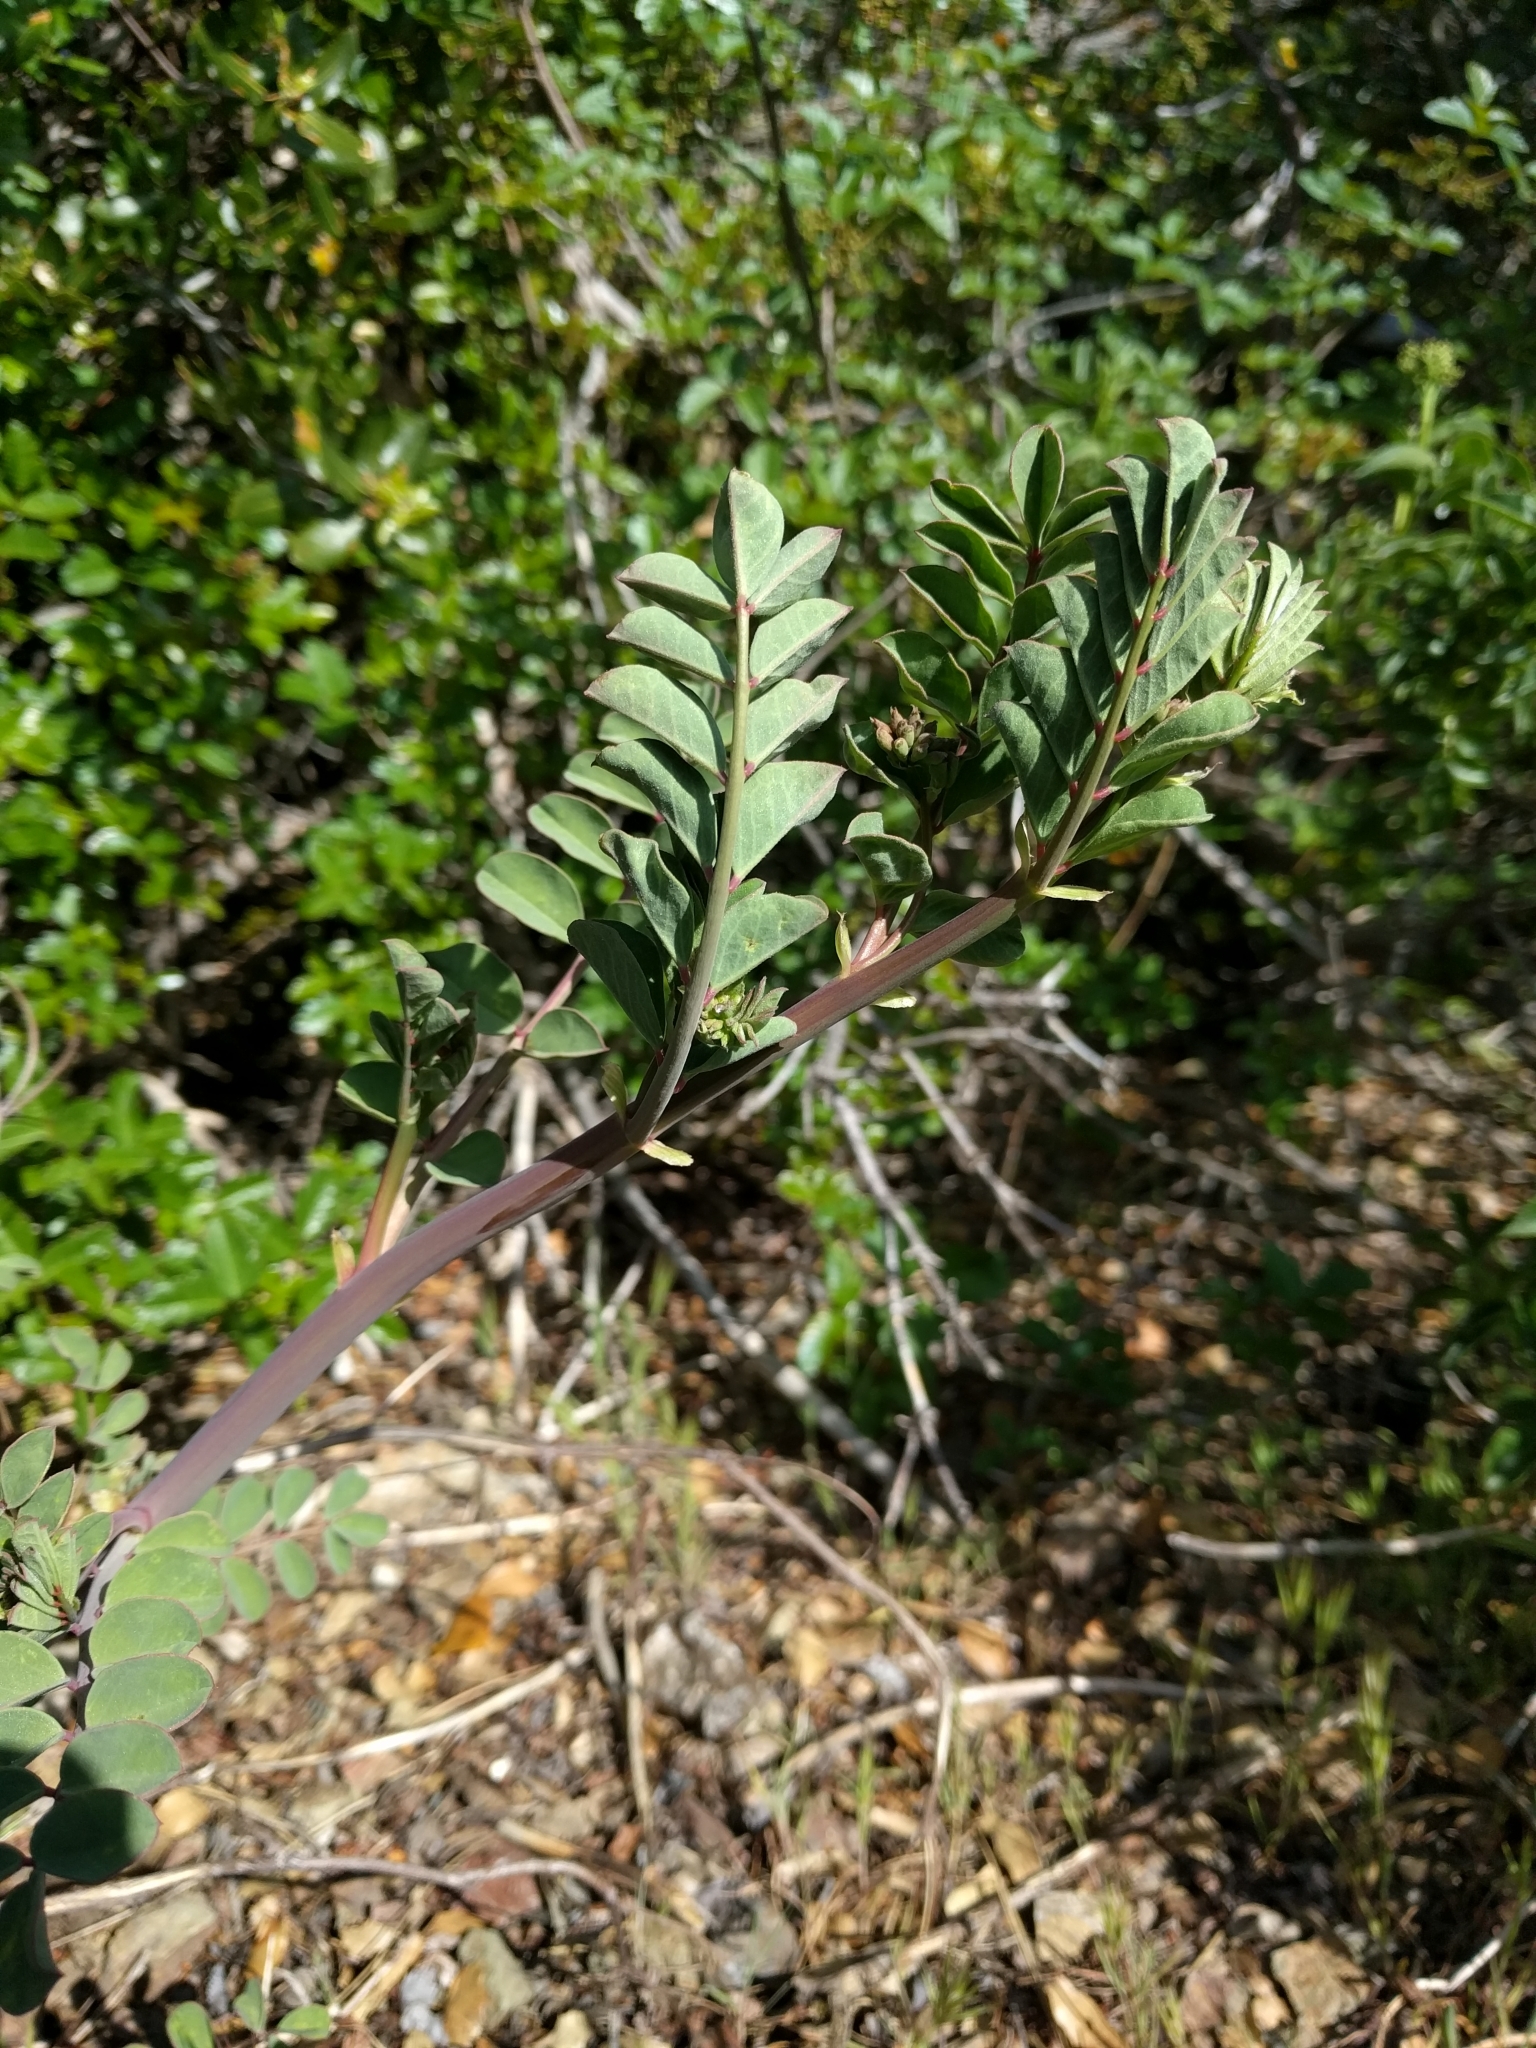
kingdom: Plantae
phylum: Tracheophyta
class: Magnoliopsida
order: Fabales
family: Fabaceae
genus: Hosackia
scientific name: Hosackia crassifolia
